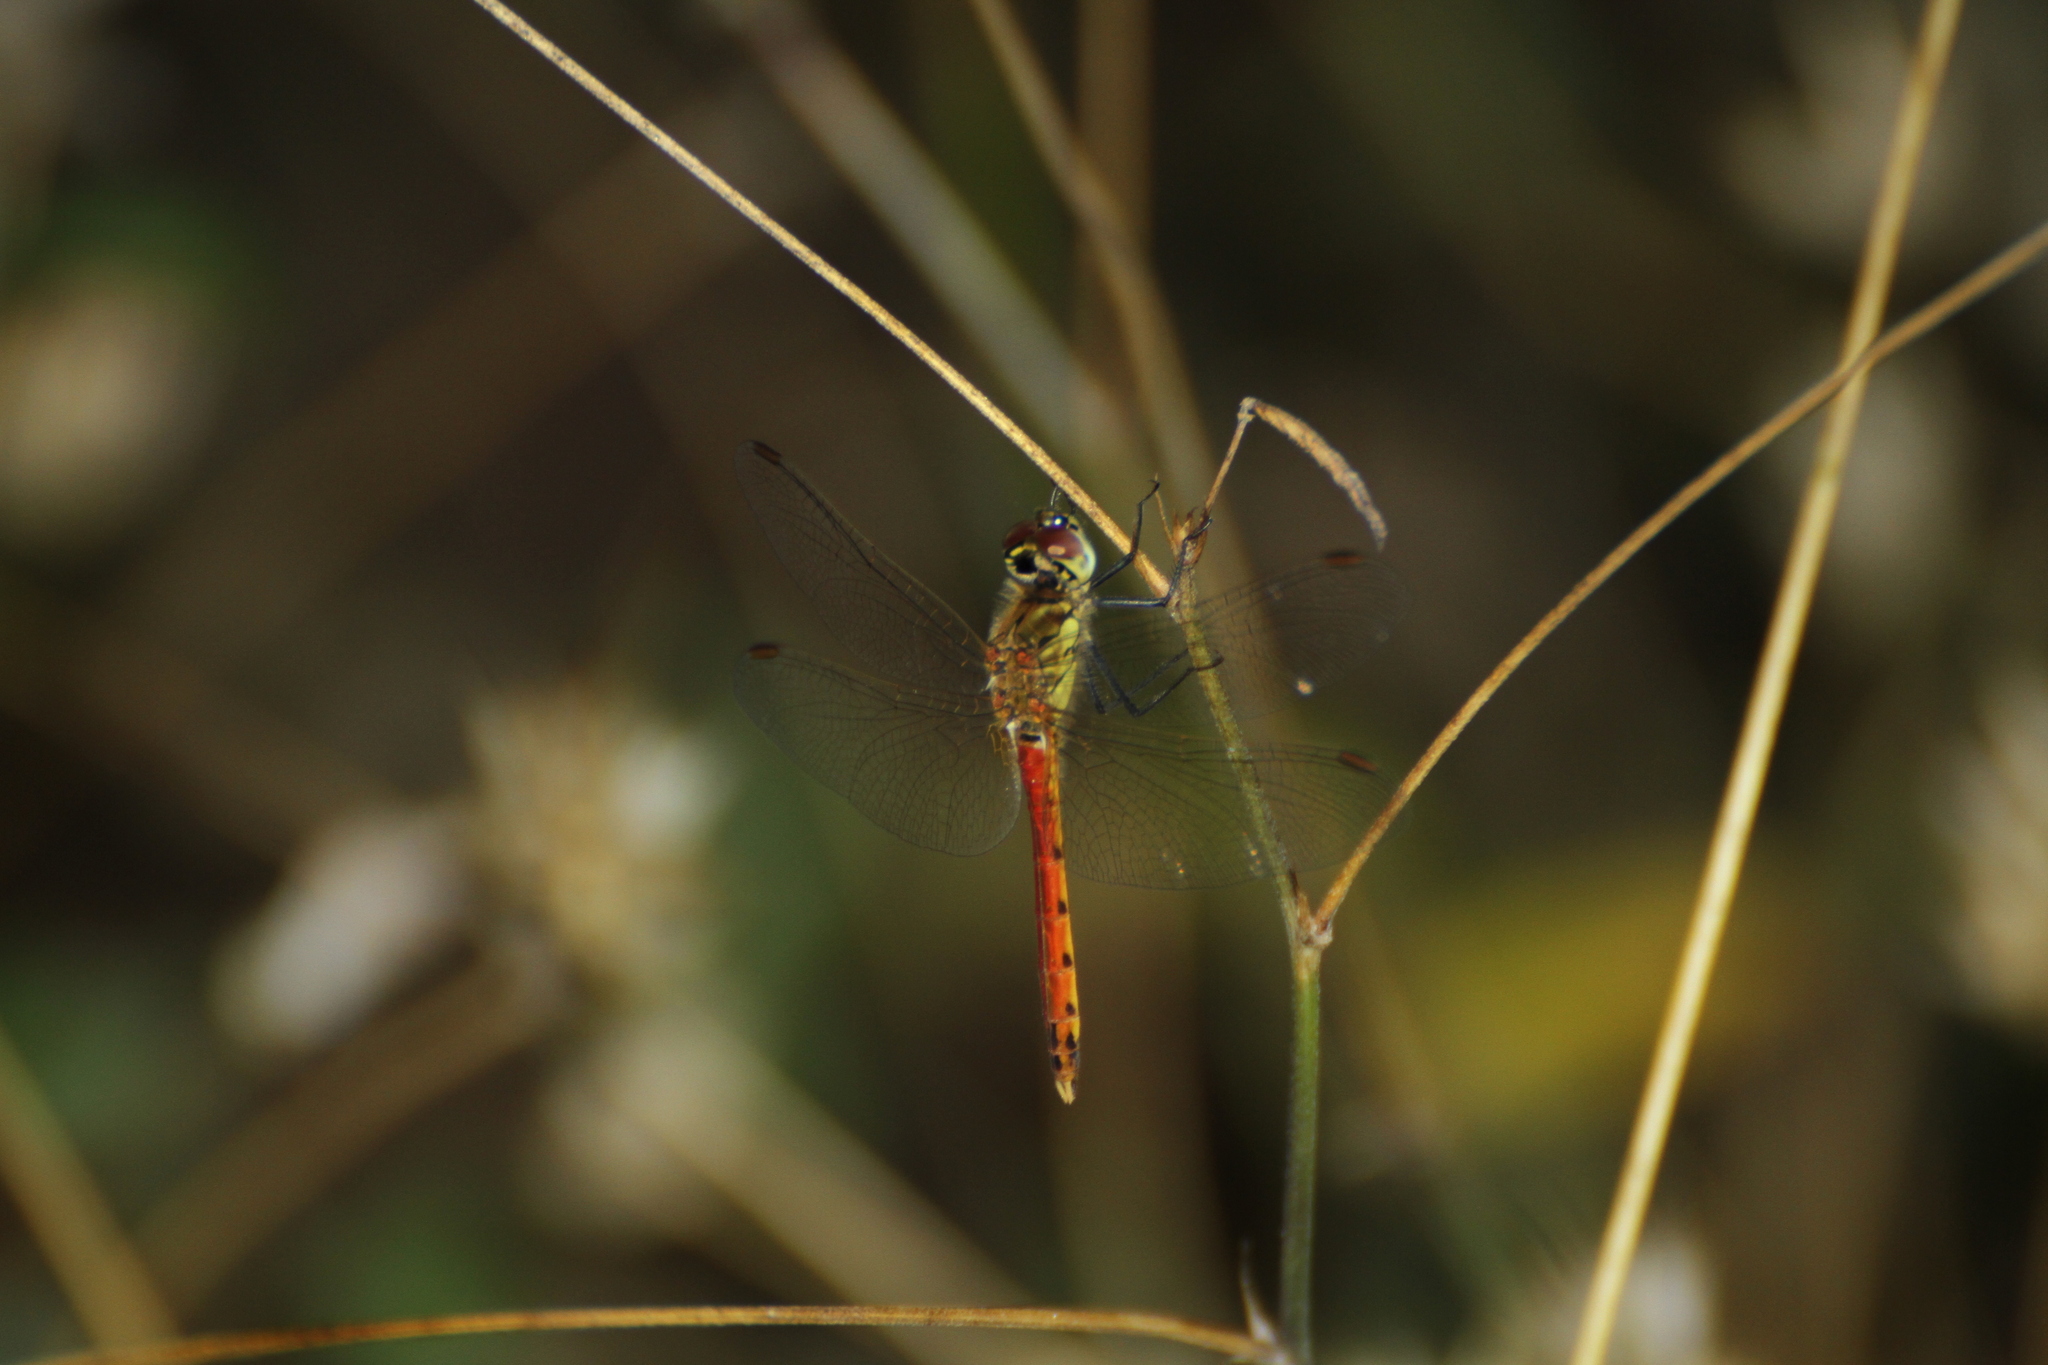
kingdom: Animalia
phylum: Arthropoda
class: Insecta
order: Odonata
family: Libellulidae
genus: Sympetrum
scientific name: Sympetrum depressiusculum
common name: Spotted darter
